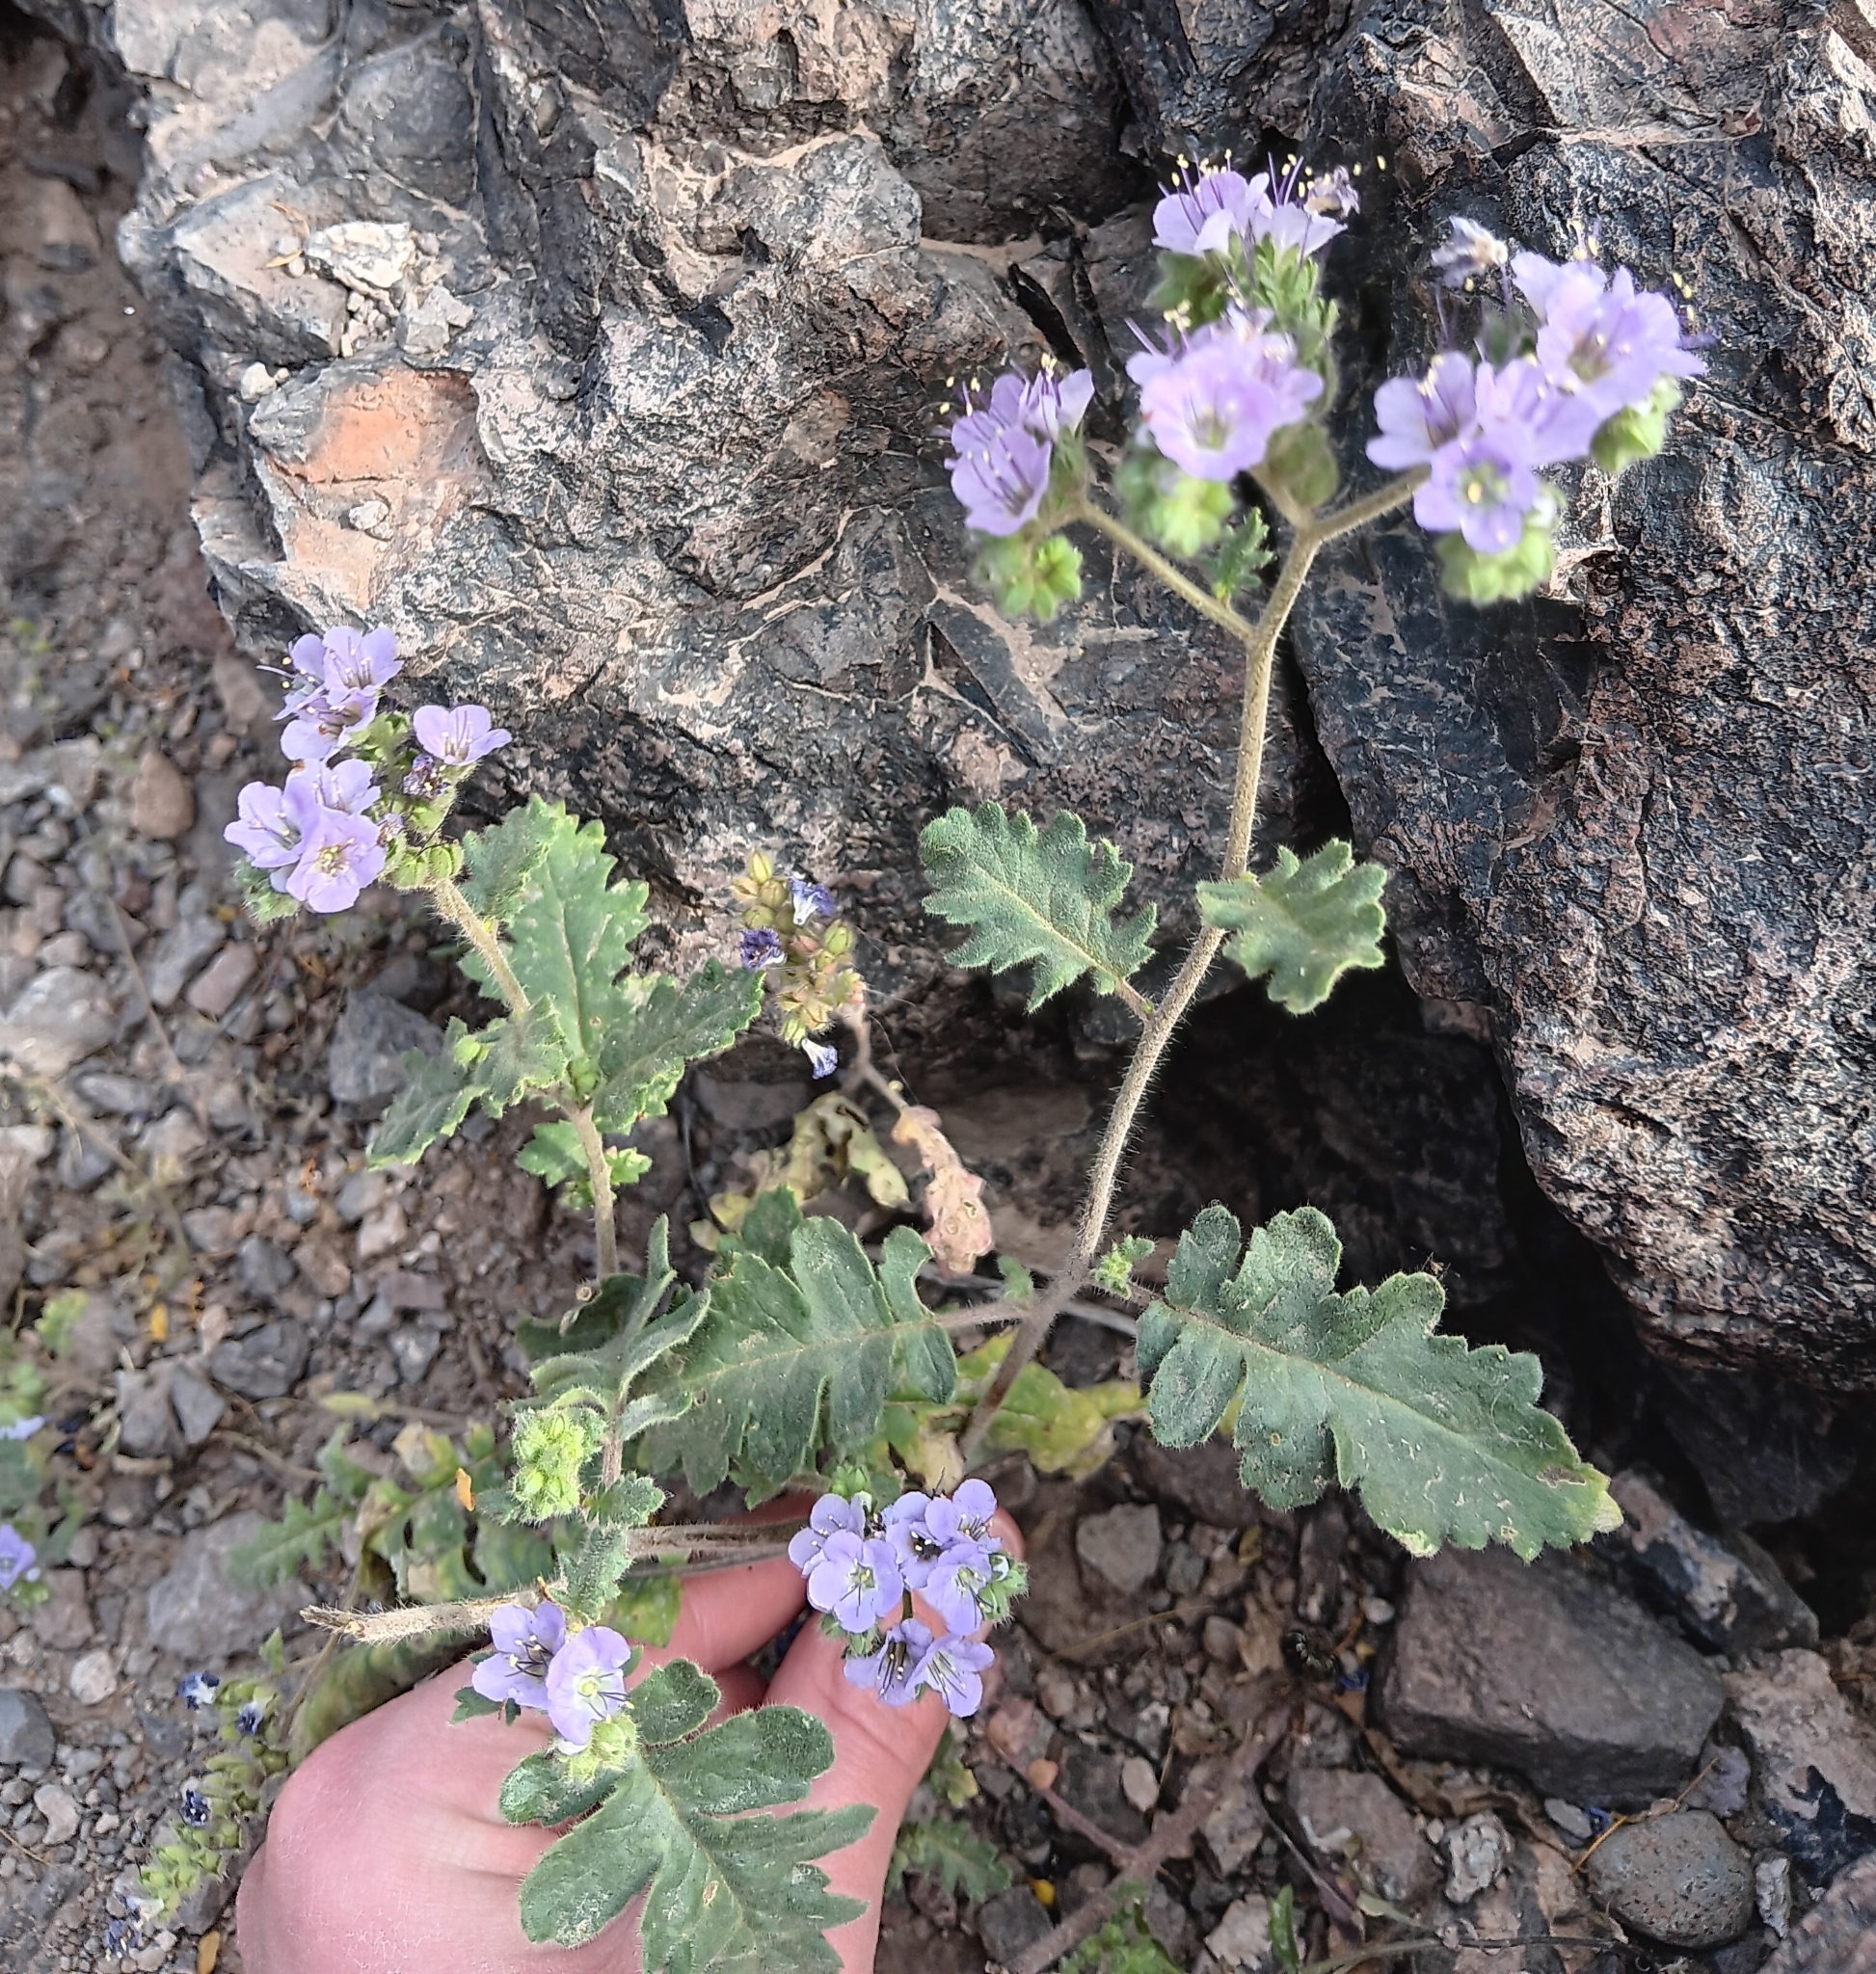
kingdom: Plantae
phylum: Tracheophyta
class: Magnoliopsida
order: Boraginales
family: Hydrophyllaceae
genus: Phacelia
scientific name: Phacelia crenulata
